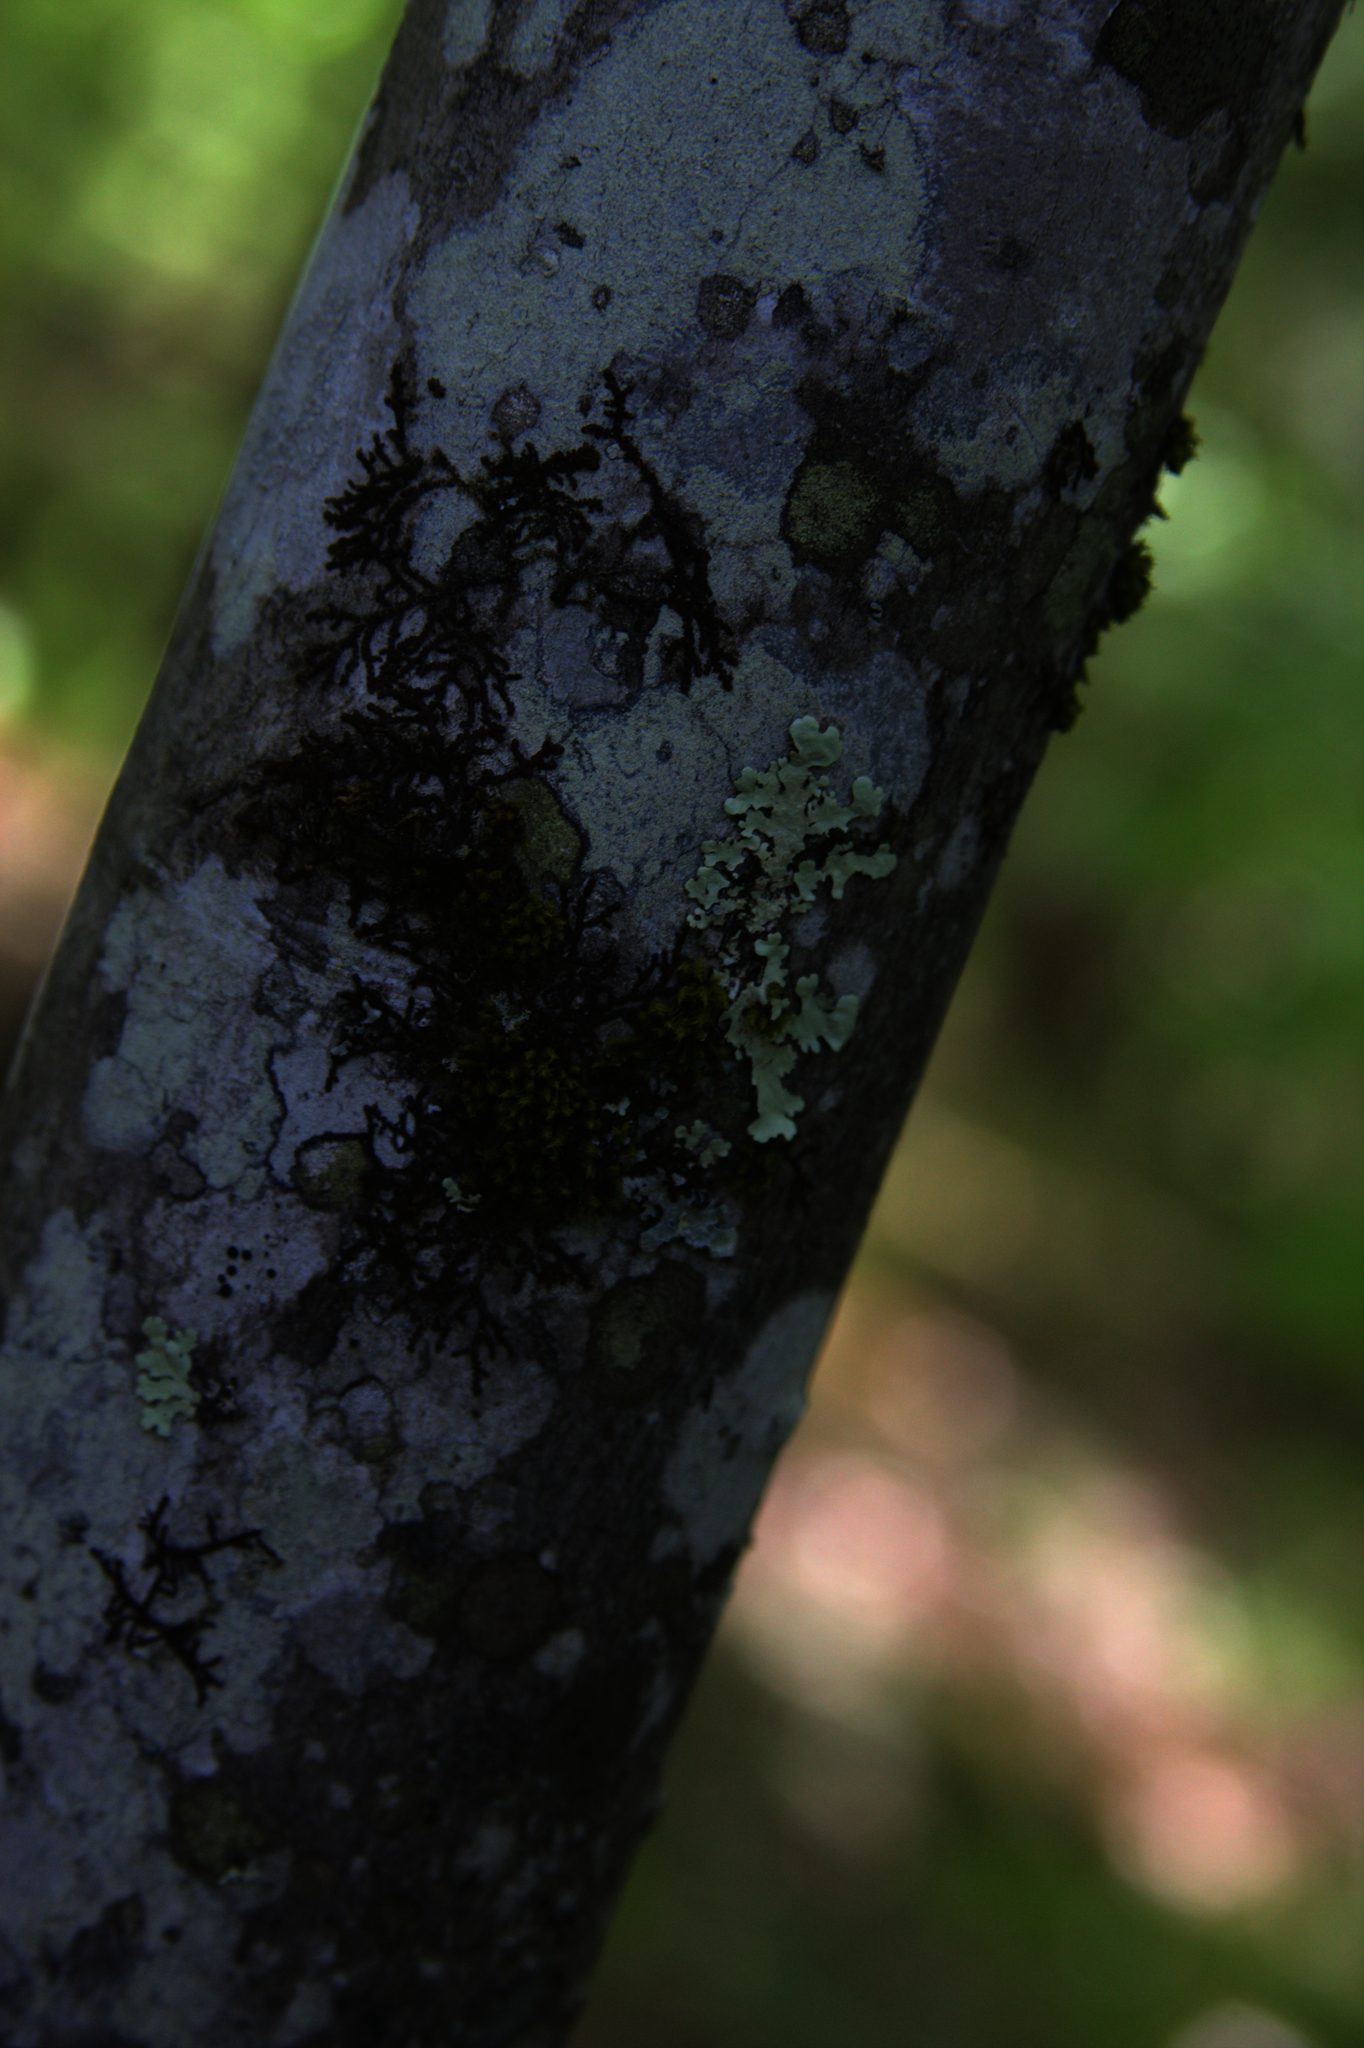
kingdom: Plantae
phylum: Bryophyta
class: Bryopsida
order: Orthotrichales
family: Orthotrichaceae
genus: Ulota
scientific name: Ulota crispa
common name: Crisped pincushion moss
